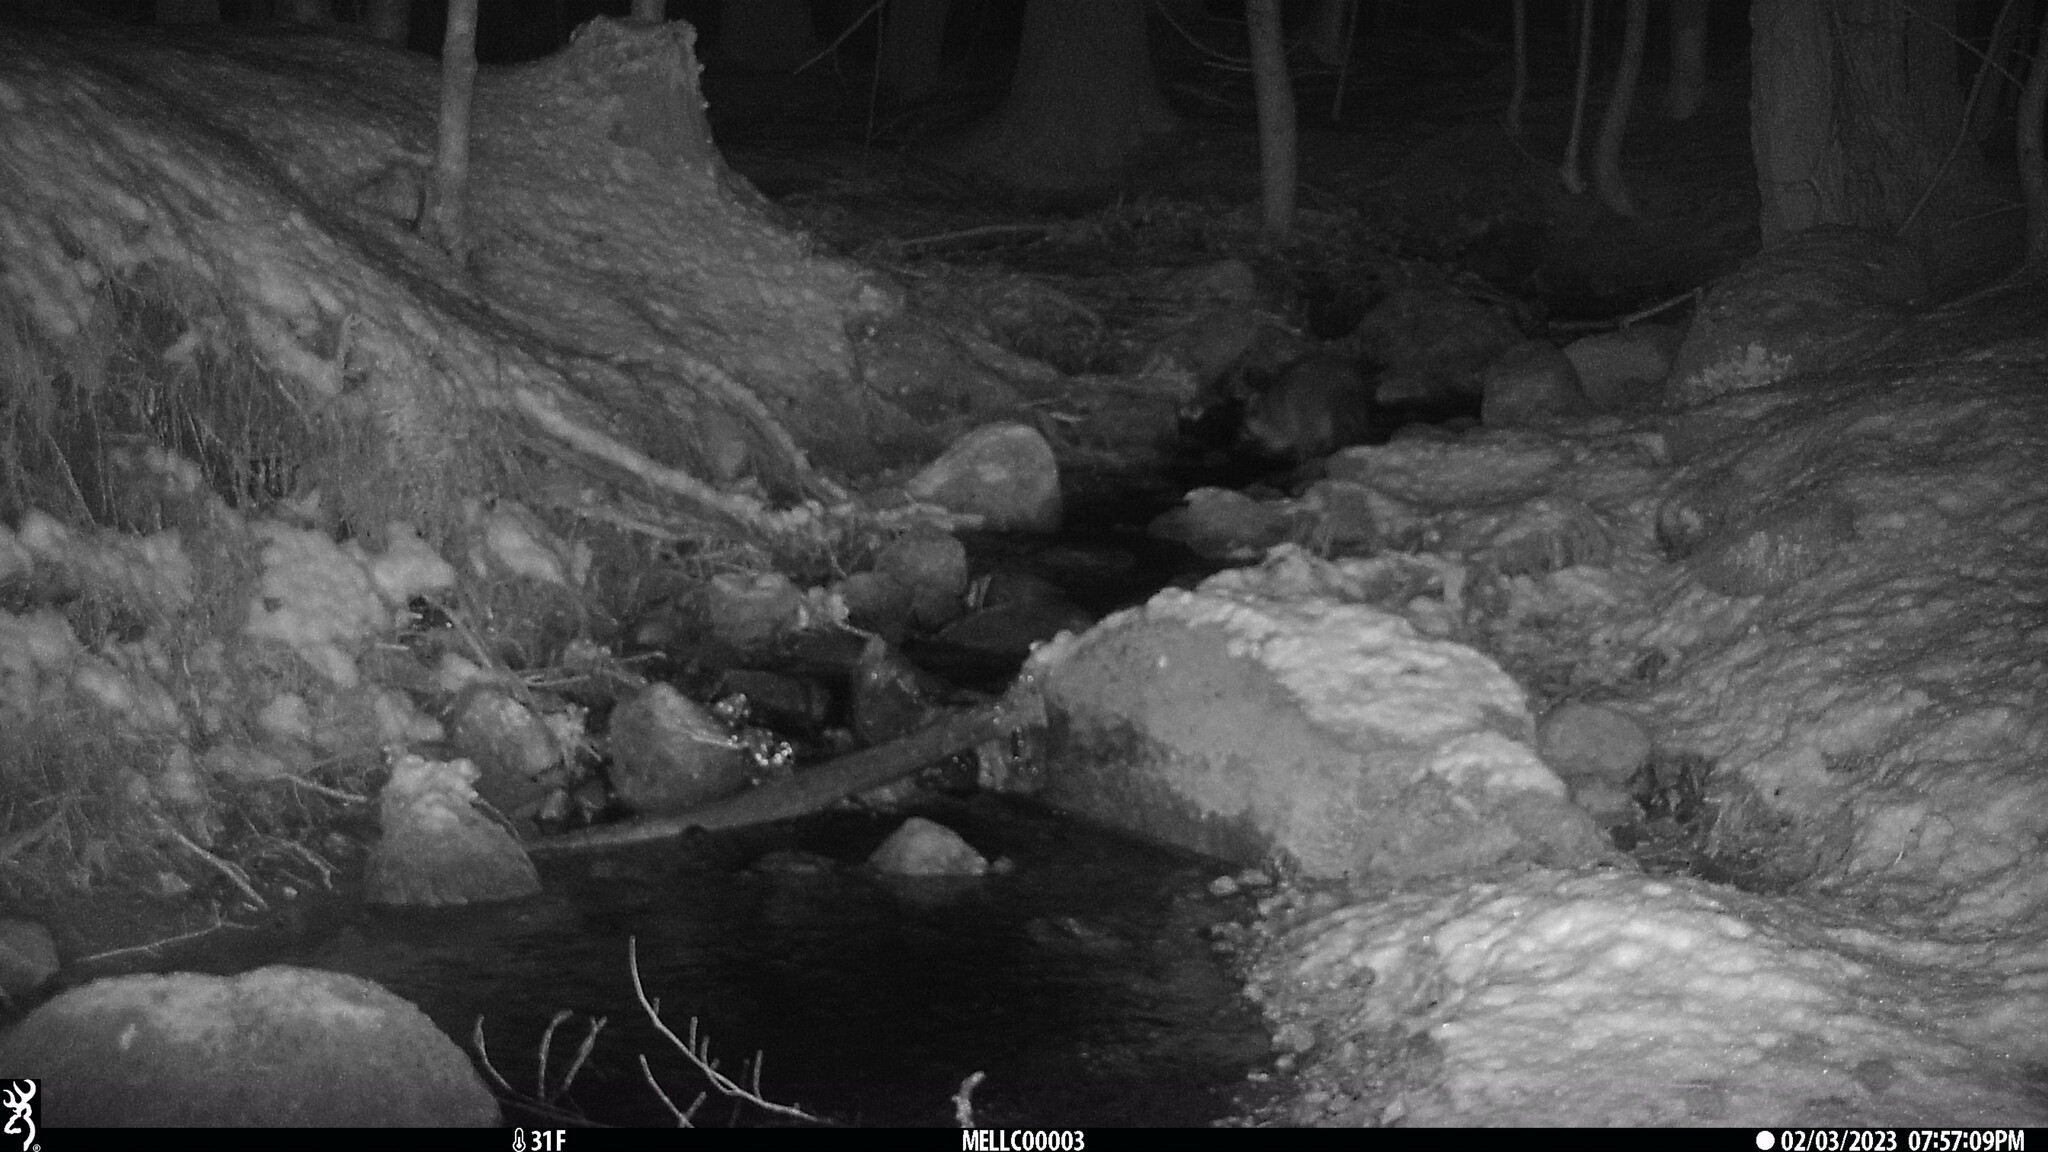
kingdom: Animalia
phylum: Chordata
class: Mammalia
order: Carnivora
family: Procyonidae
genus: Procyon
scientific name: Procyon lotor
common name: Raccoon
